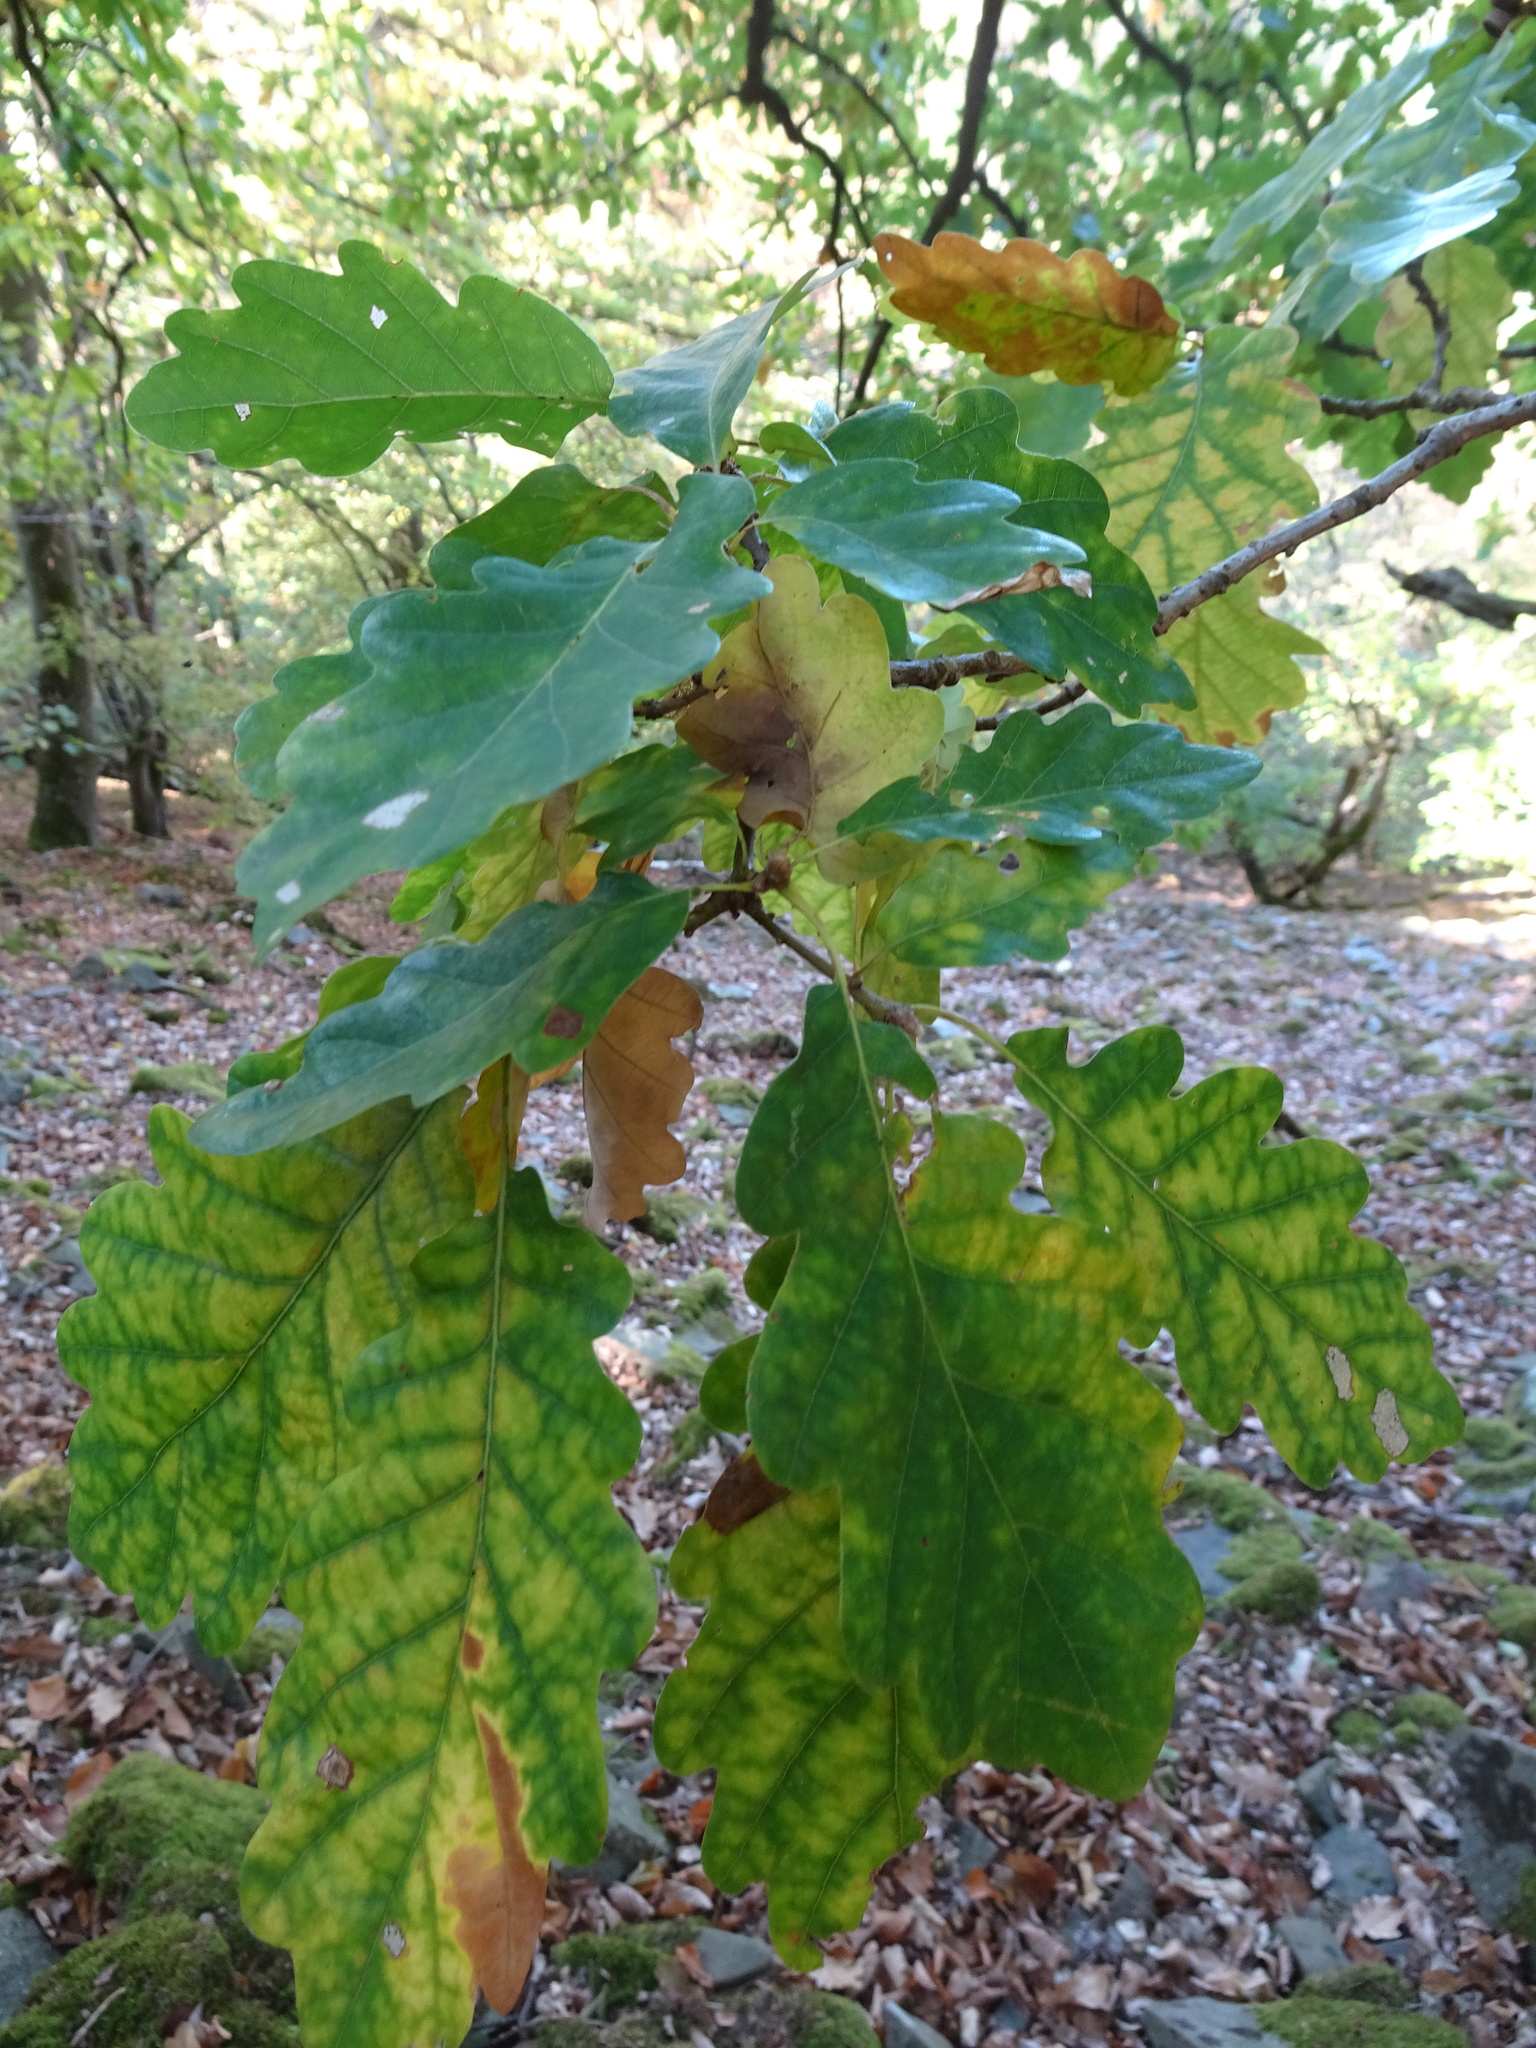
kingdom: Plantae
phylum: Tracheophyta
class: Magnoliopsida
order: Fagales
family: Fagaceae
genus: Quercus
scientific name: Quercus petraea
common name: Sessile oak
